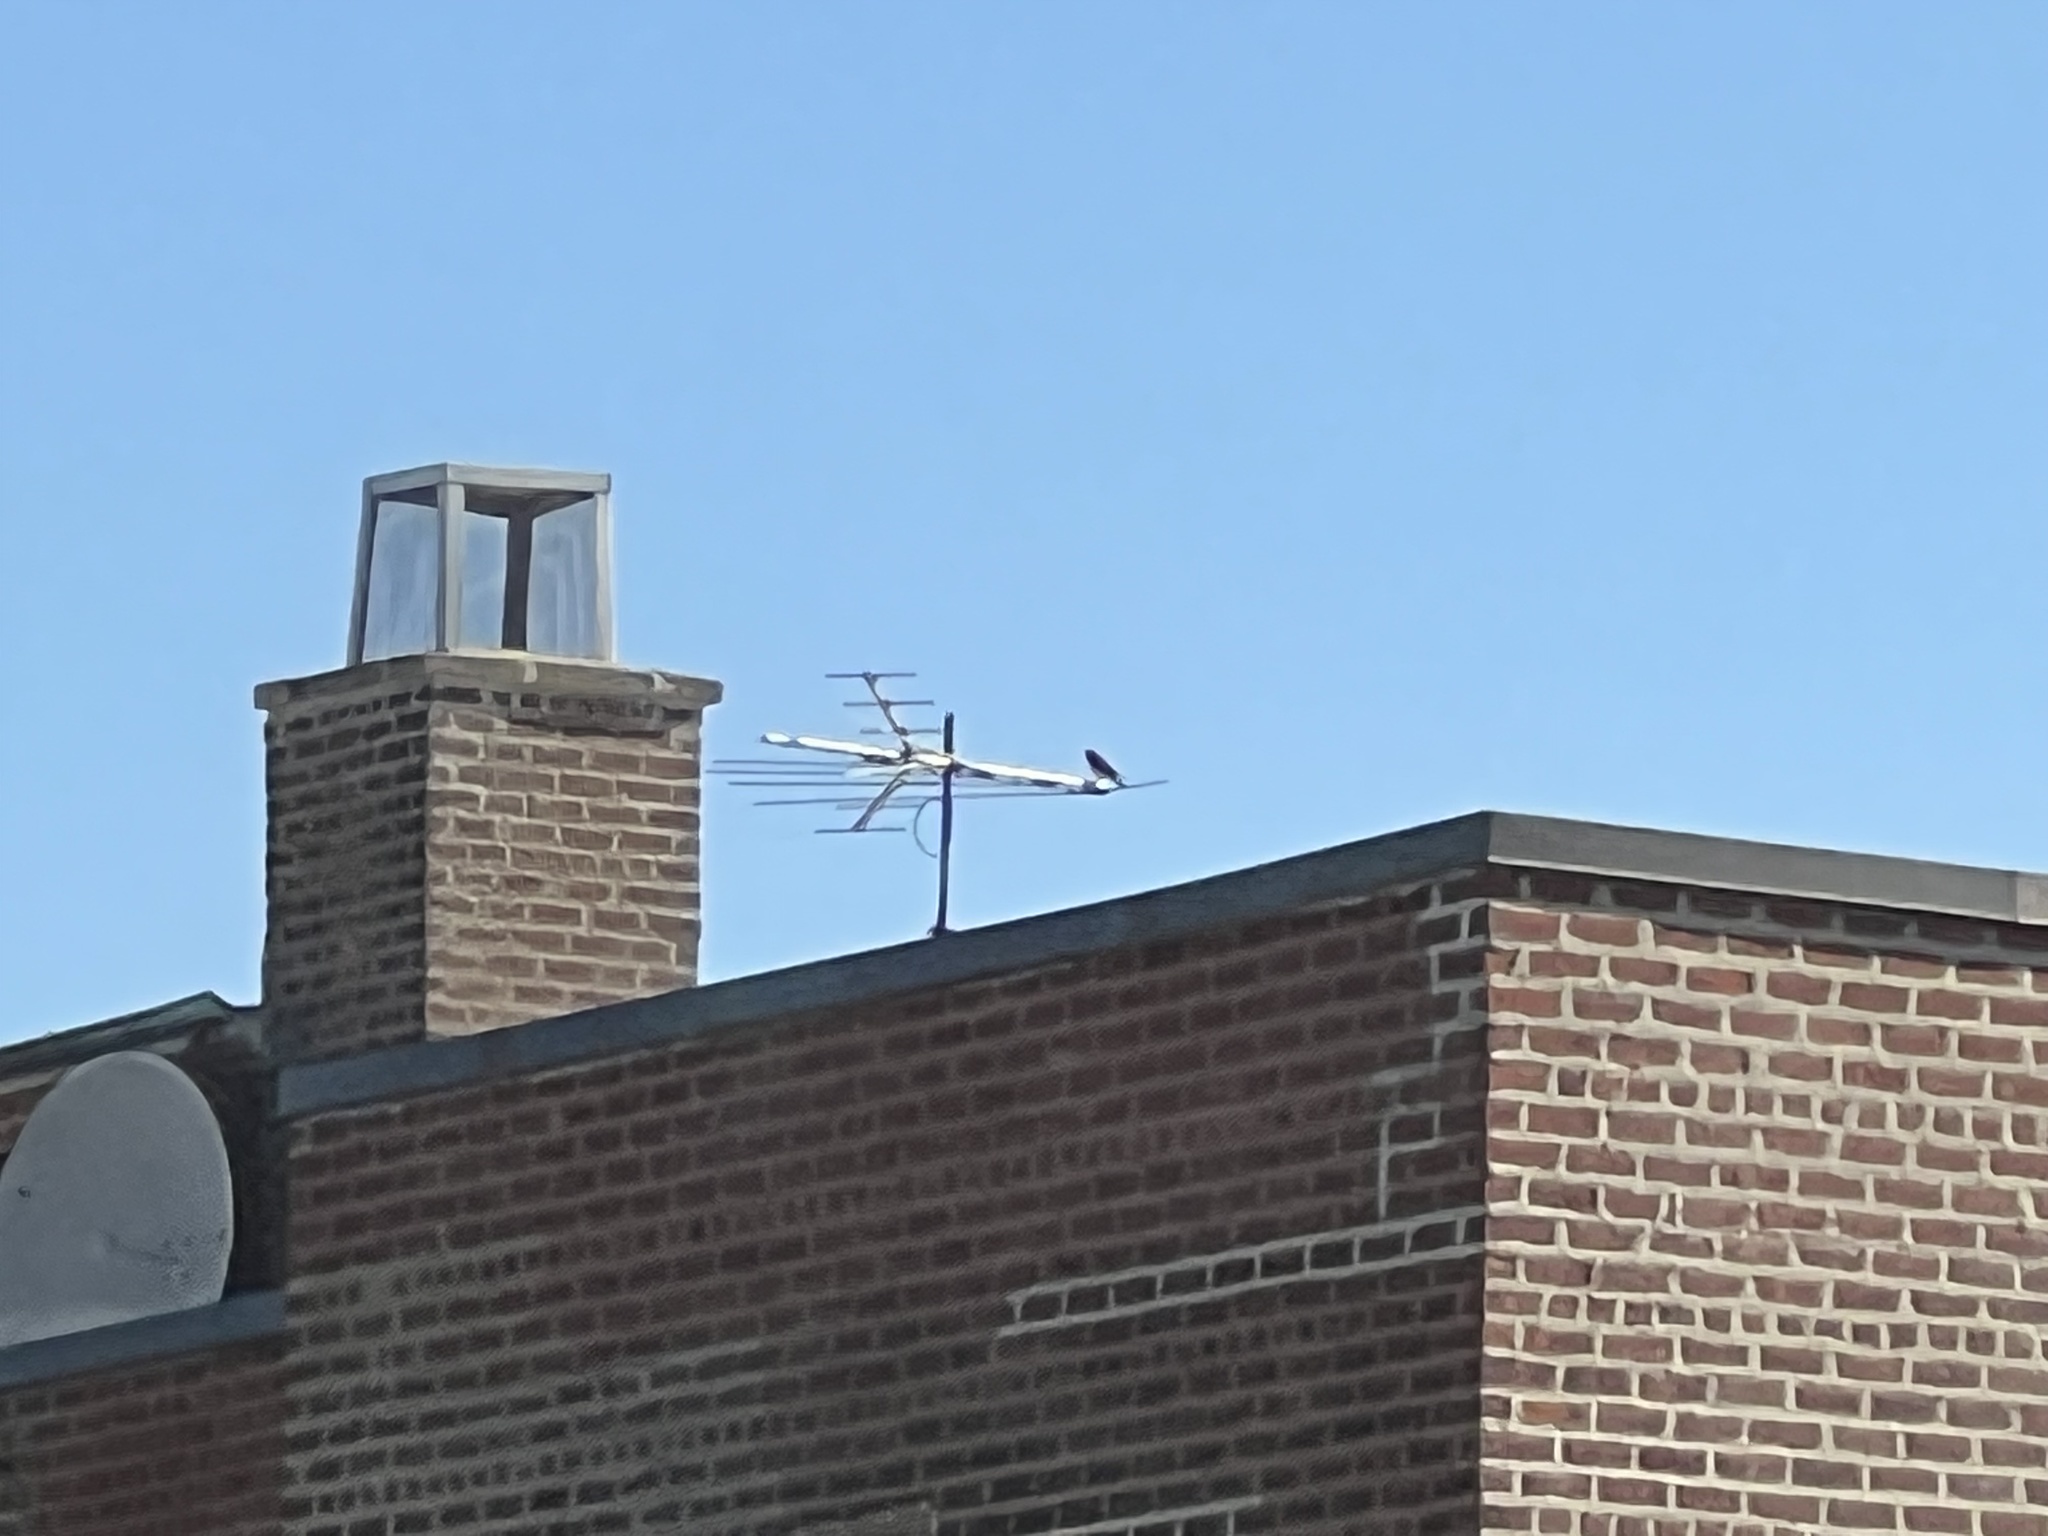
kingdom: Animalia
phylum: Chordata
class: Aves
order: Falconiformes
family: Falconidae
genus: Falco
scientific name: Falco sparverius
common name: American kestrel
